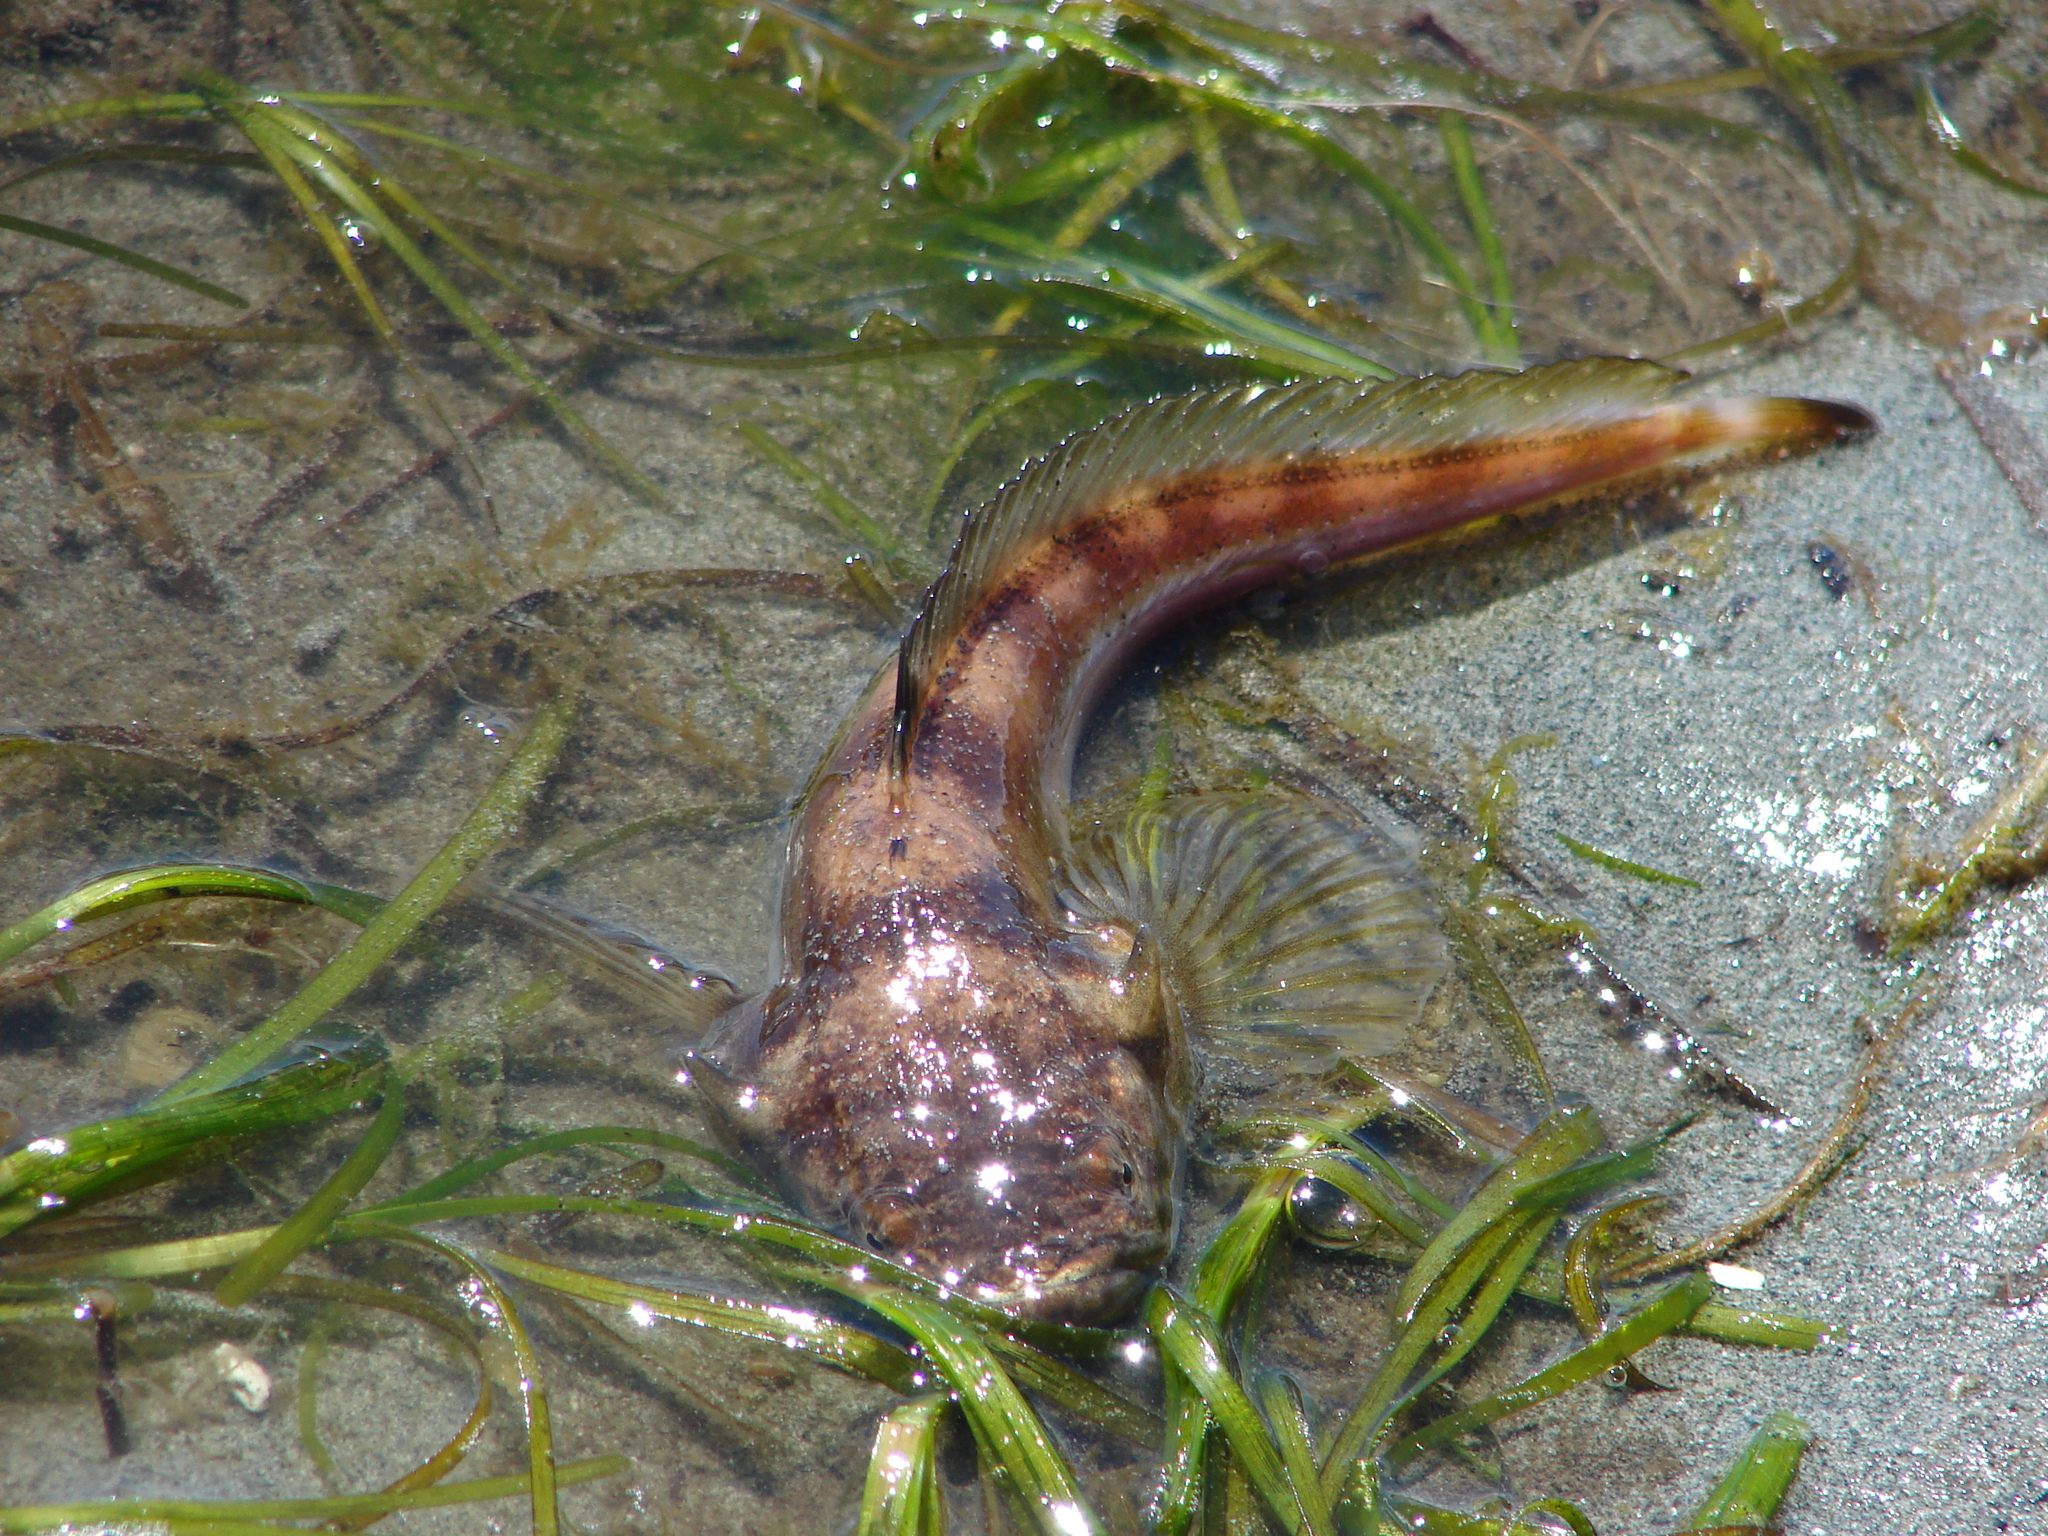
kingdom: Animalia
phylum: Chordata
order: Batrachoidiformes
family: Batrachoididae
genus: Porichthys
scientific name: Porichthys notatus
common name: Plainfin midshipman
